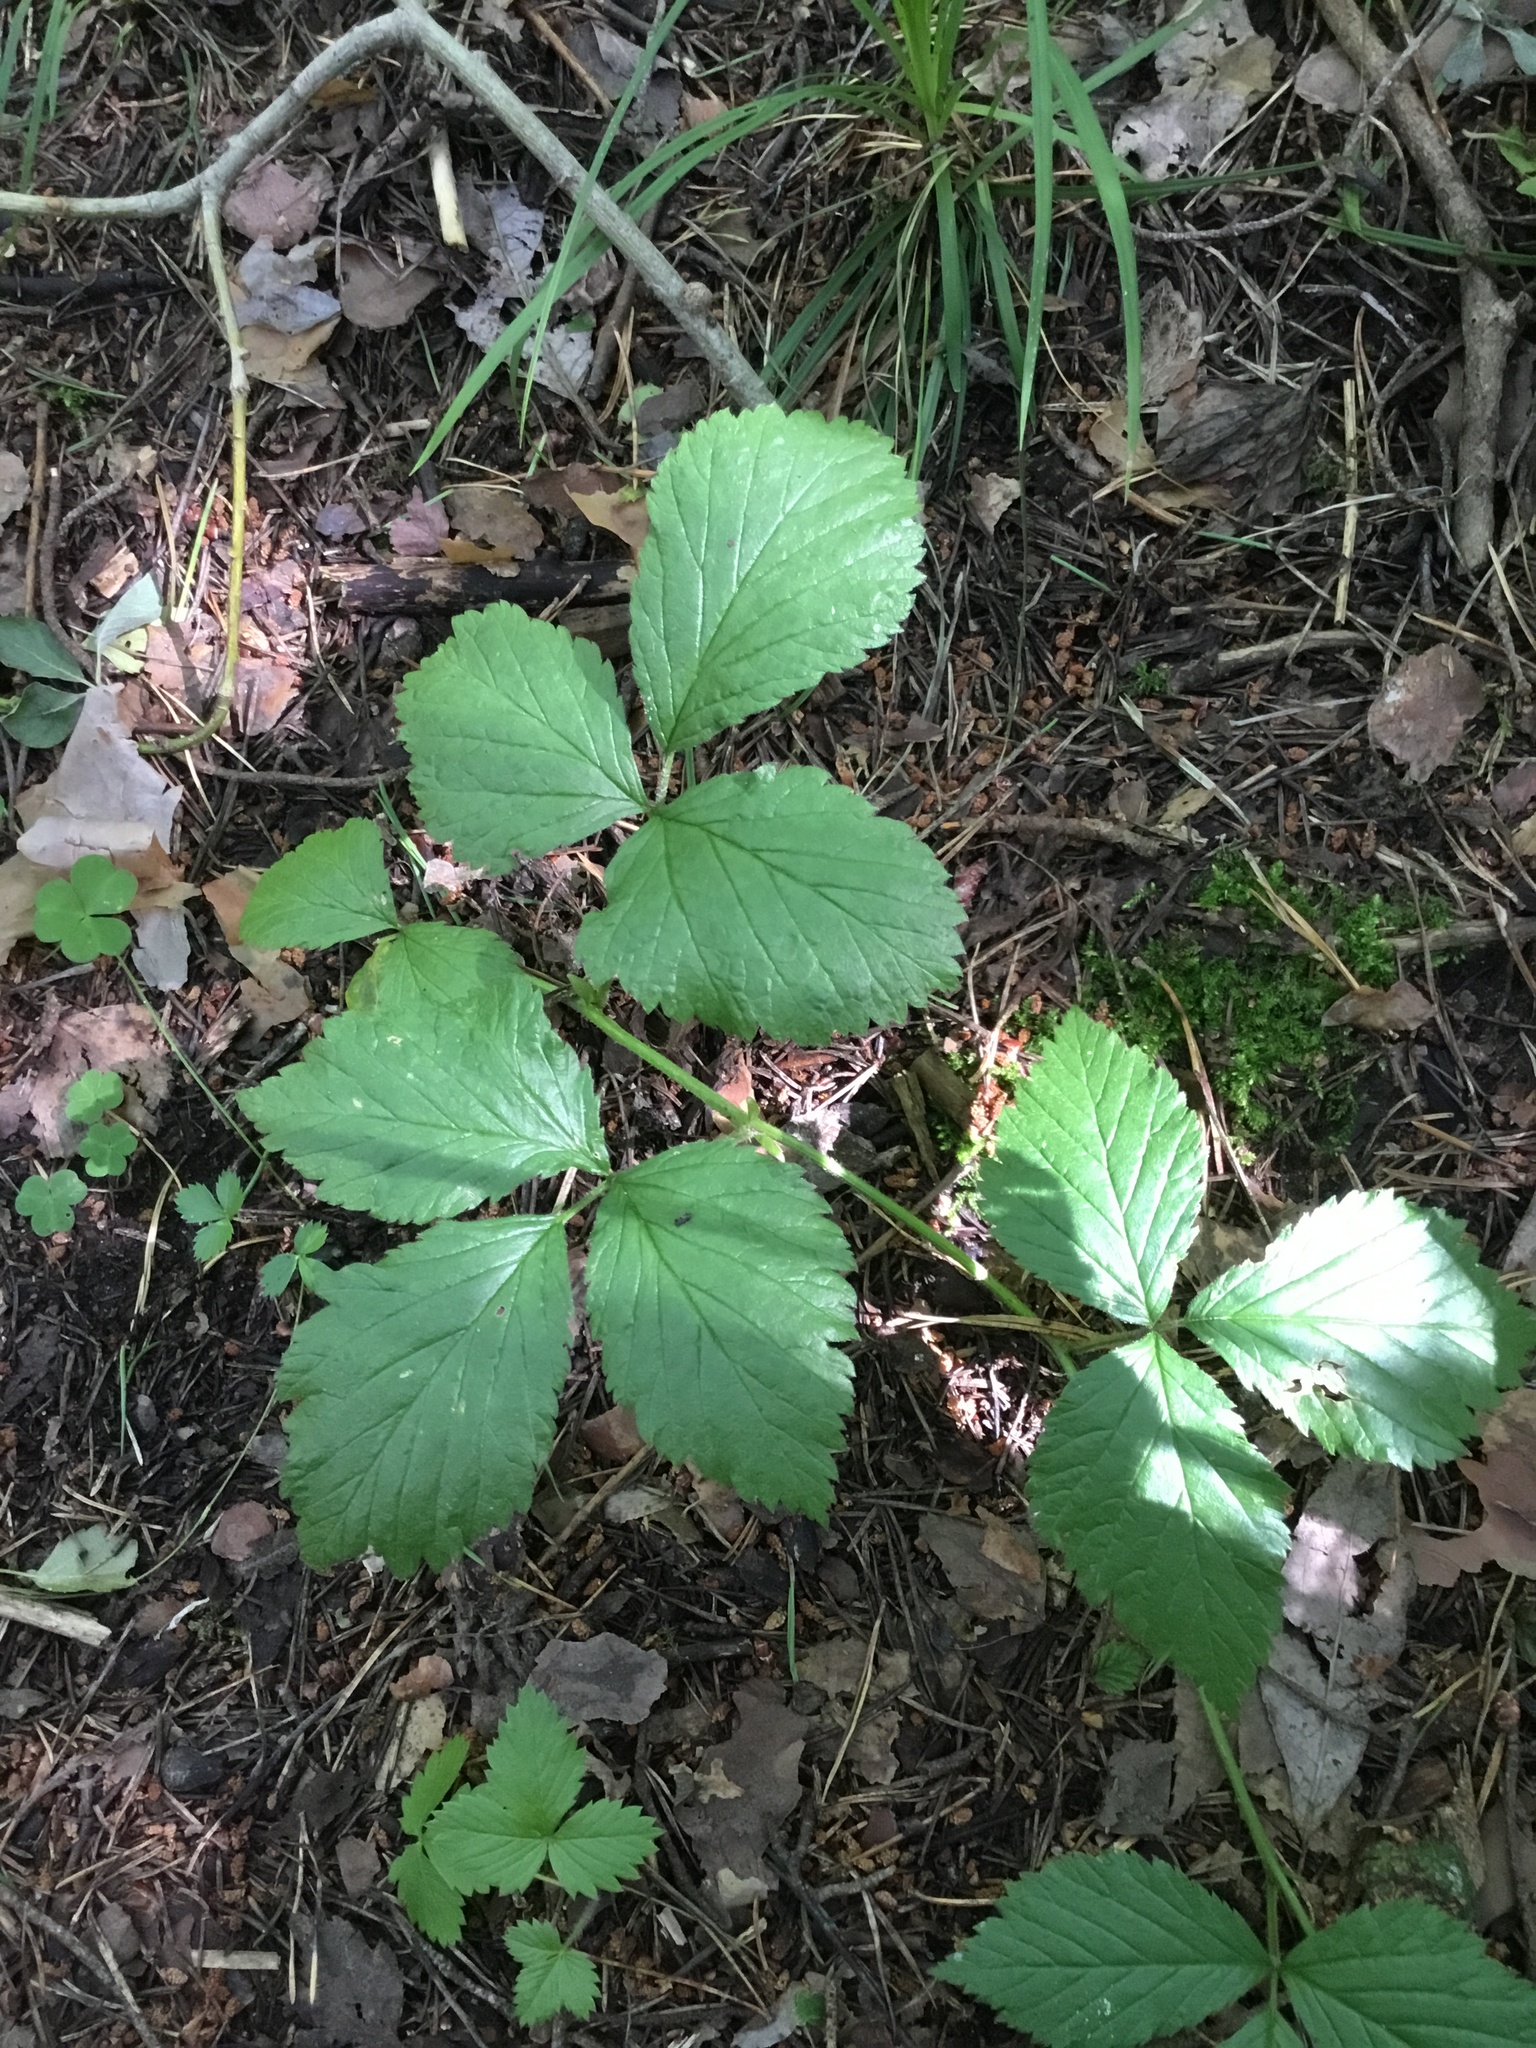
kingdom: Plantae
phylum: Tracheophyta
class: Magnoliopsida
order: Rosales
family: Rosaceae
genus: Rubus
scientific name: Rubus saxatilis
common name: Stone bramble
